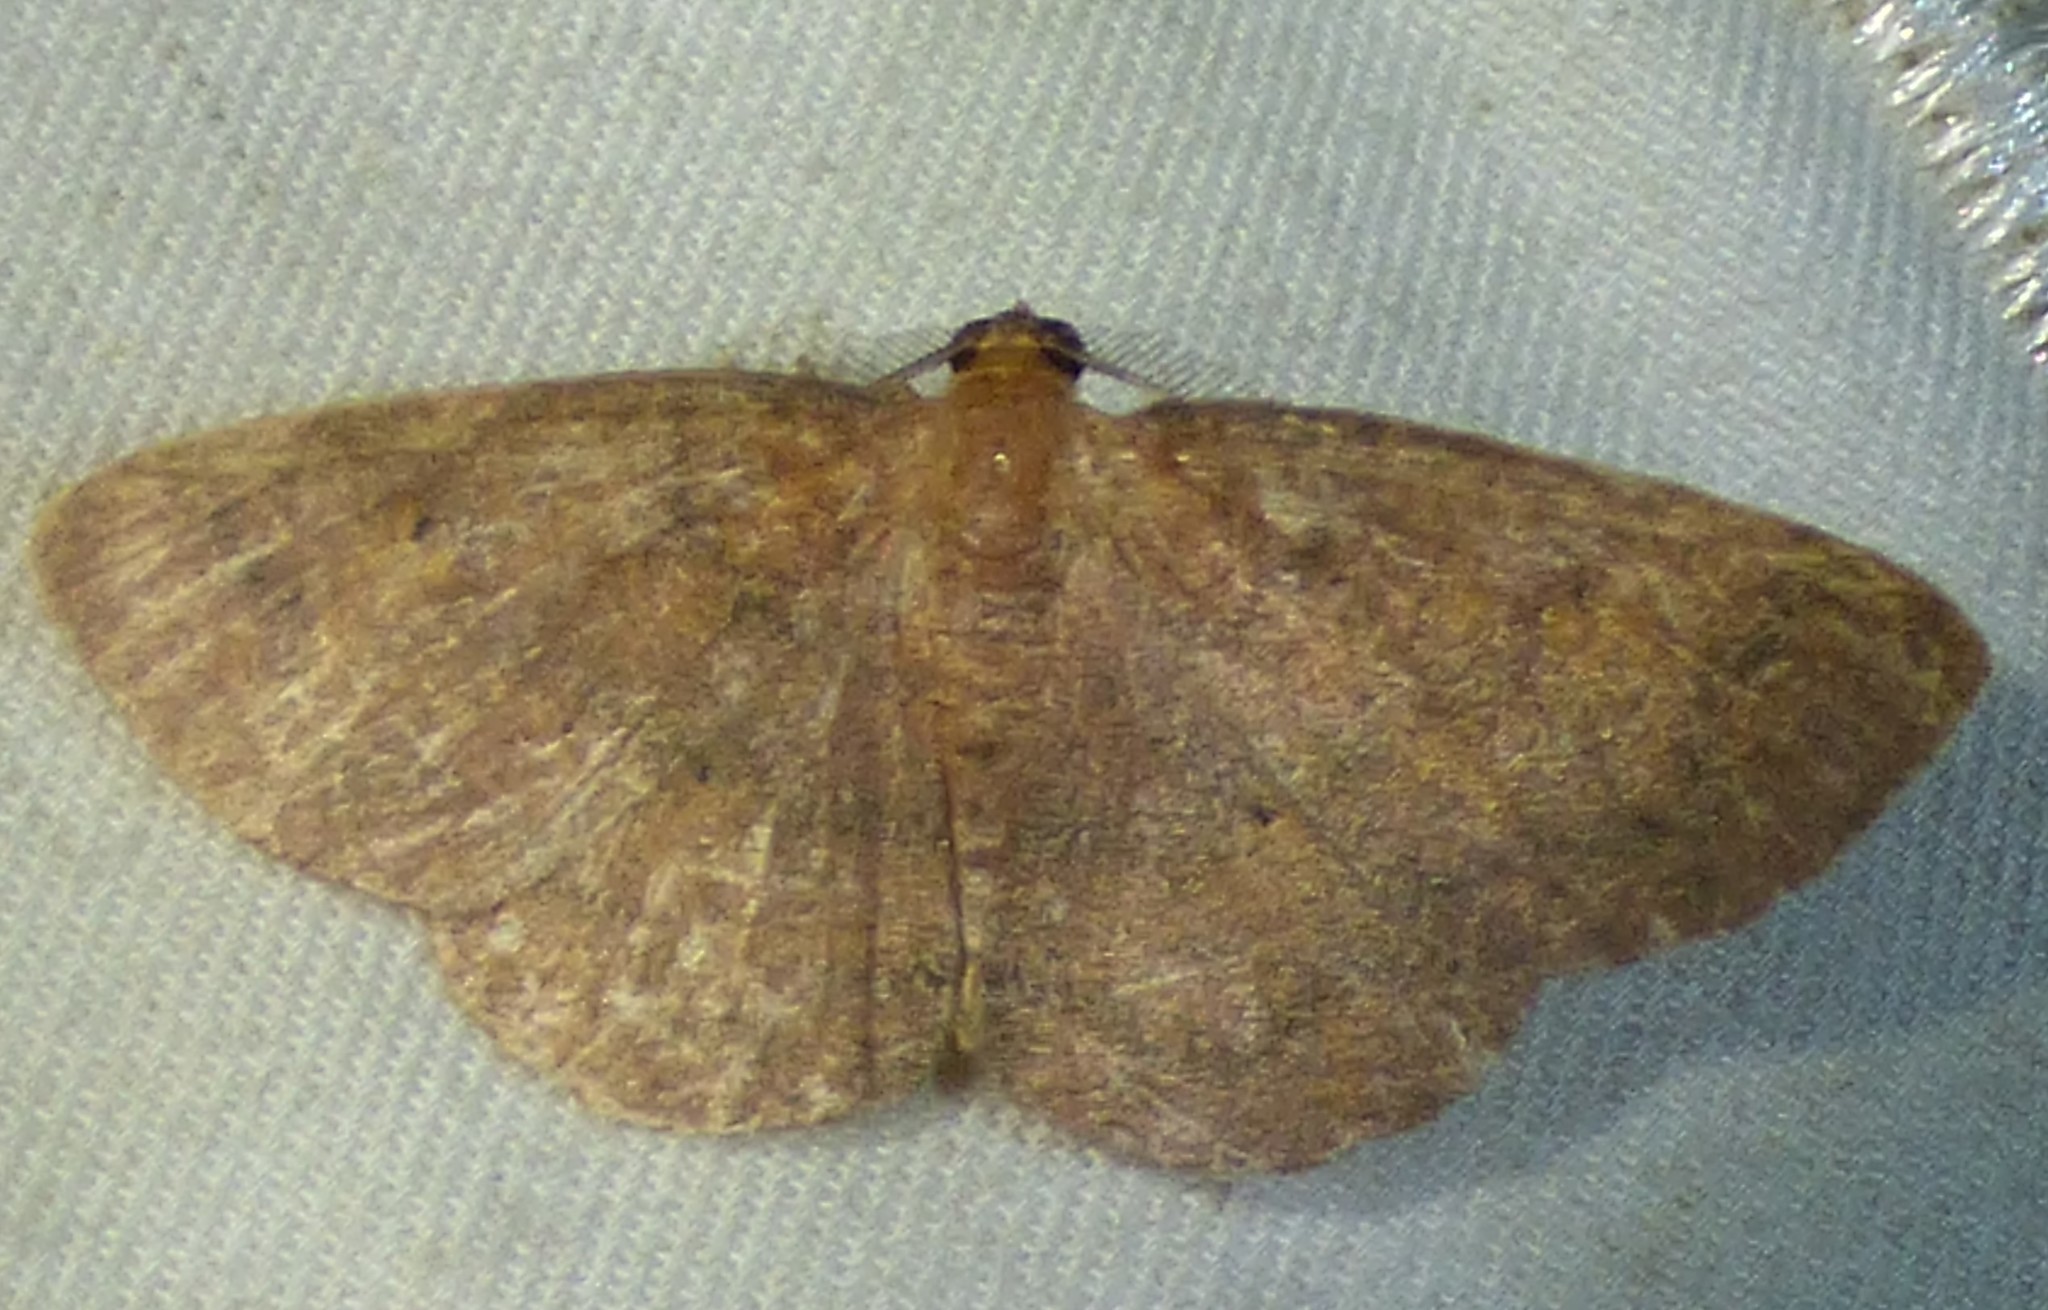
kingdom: Animalia
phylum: Arthropoda
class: Insecta
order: Lepidoptera
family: Geometridae
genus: Ilexia
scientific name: Ilexia intractata
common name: Black-dotted ruddy moth
